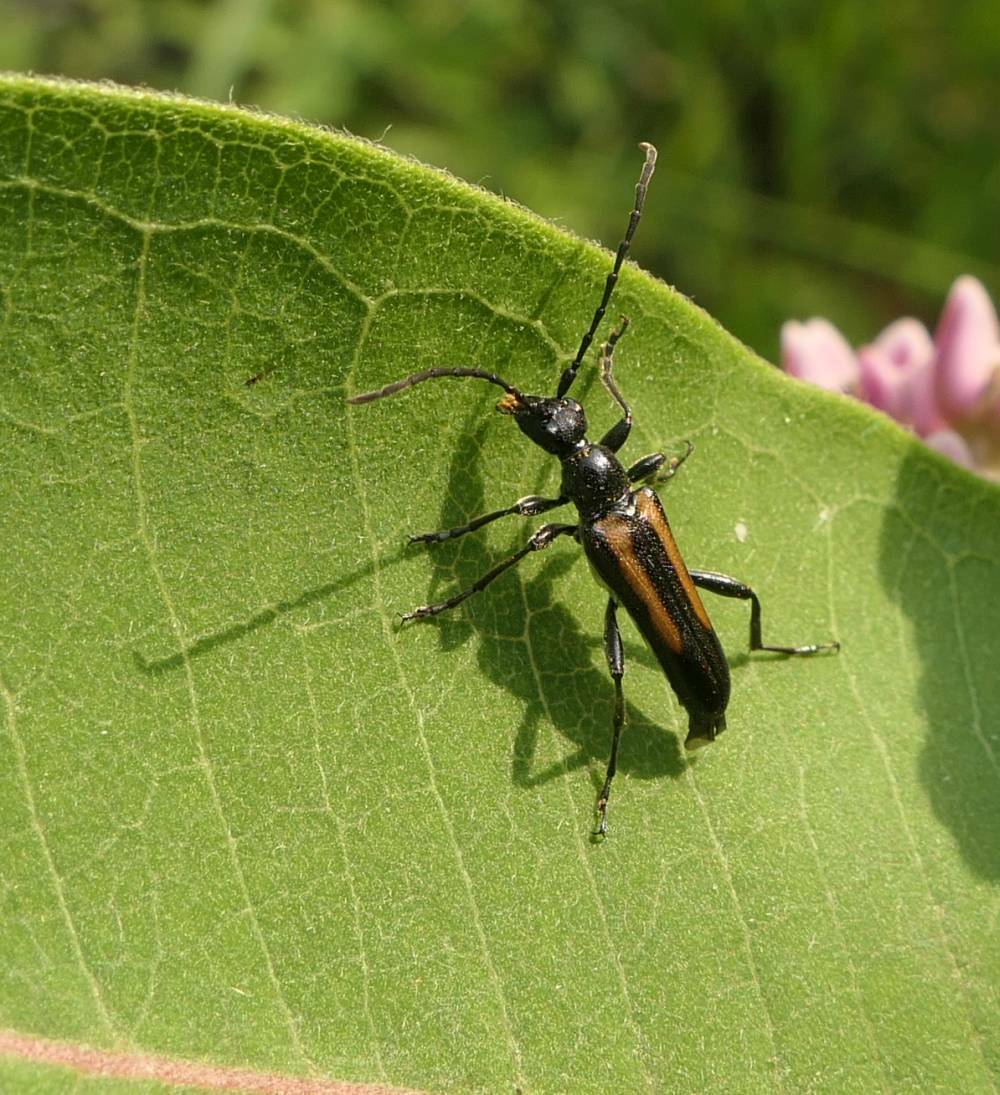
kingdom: Animalia
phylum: Arthropoda
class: Insecta
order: Coleoptera
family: Cerambycidae
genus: Strangalepta
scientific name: Strangalepta abbreviata
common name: Strangalepta flower longhorn beetle
